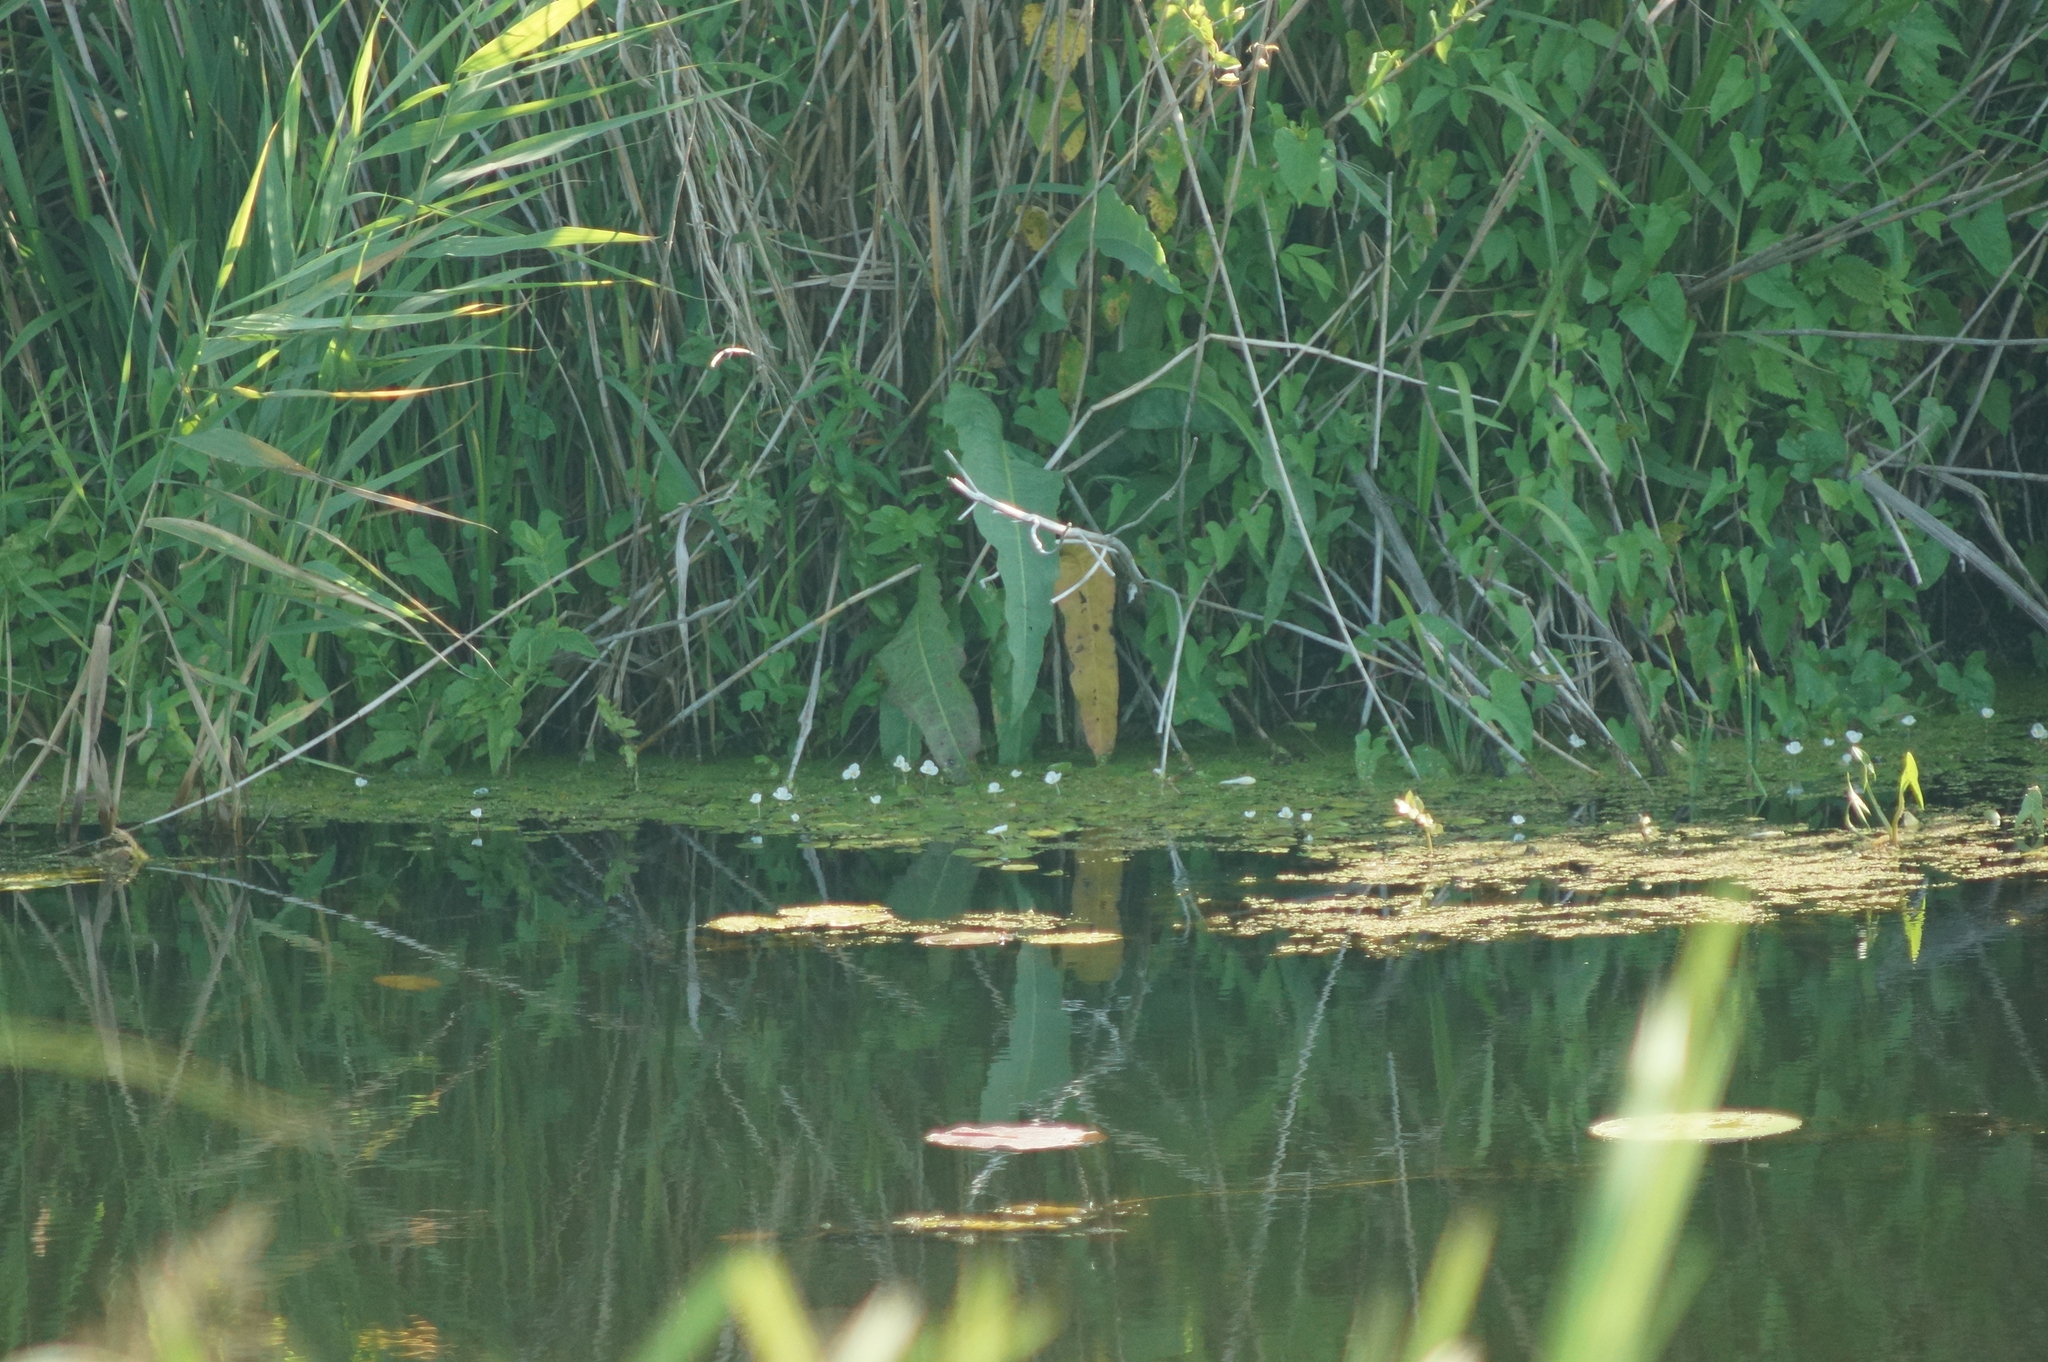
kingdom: Plantae
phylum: Tracheophyta
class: Liliopsida
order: Alismatales
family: Hydrocharitaceae
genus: Hydrocharis
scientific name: Hydrocharis morsus-ranae
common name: Frogbit
